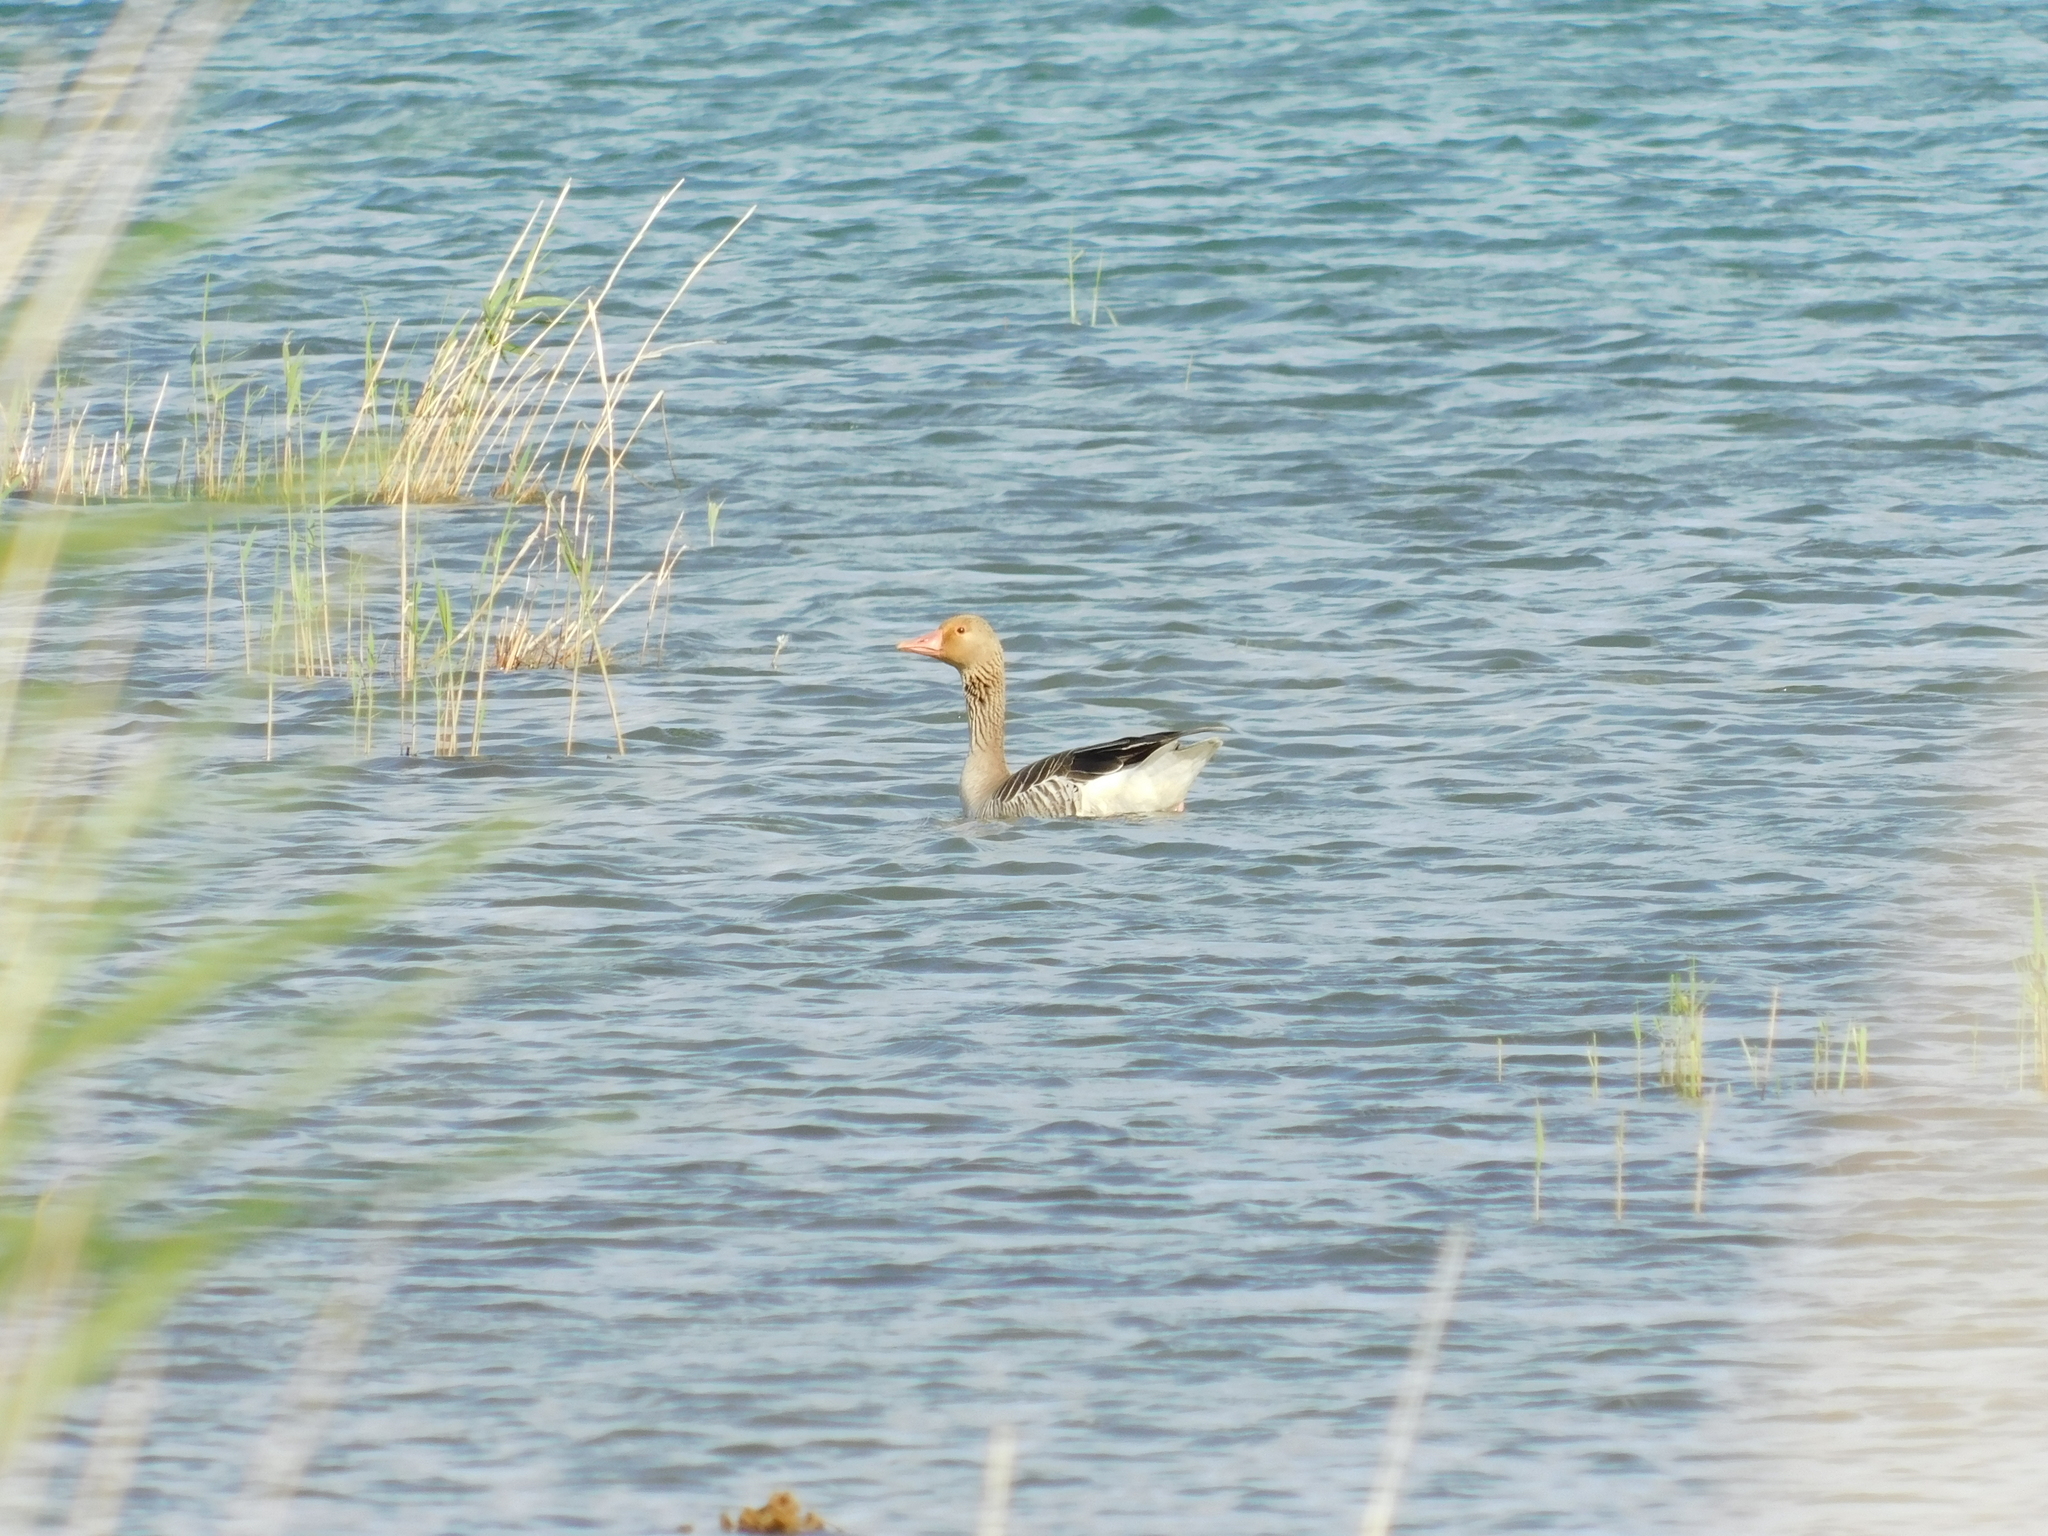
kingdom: Animalia
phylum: Chordata
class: Aves
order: Anseriformes
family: Anatidae
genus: Anser
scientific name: Anser anser
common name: Greylag goose
